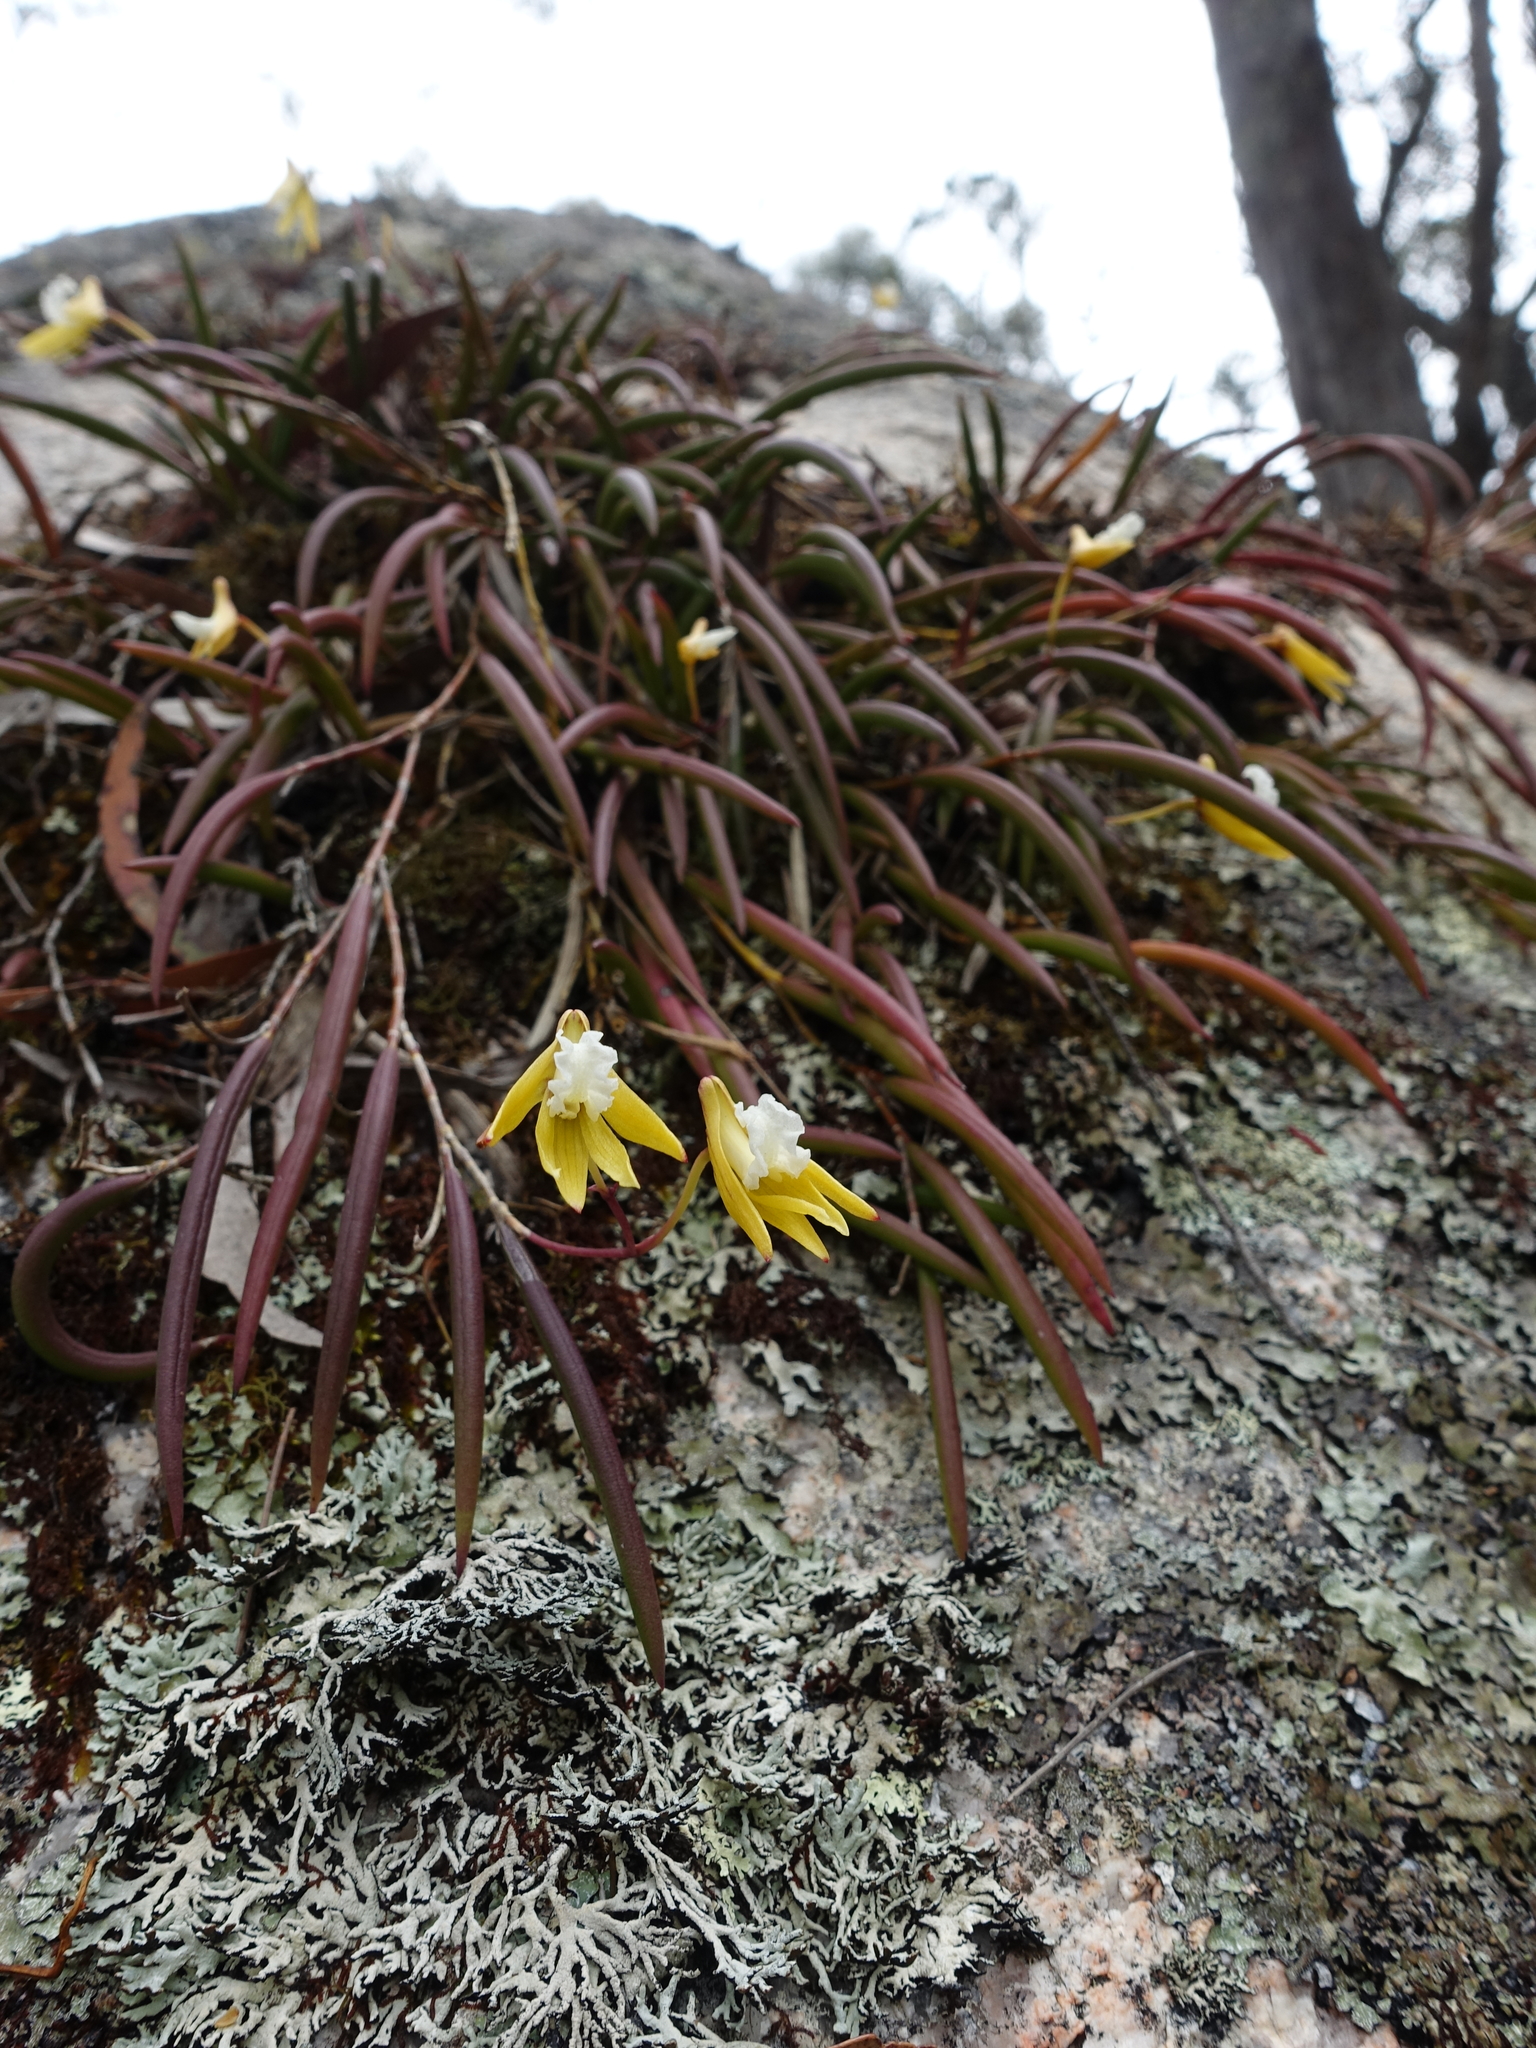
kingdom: Plantae
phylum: Tracheophyta
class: Liliopsida
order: Asparagales
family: Orchidaceae
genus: Dendrobium
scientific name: Dendrobium striolatum
